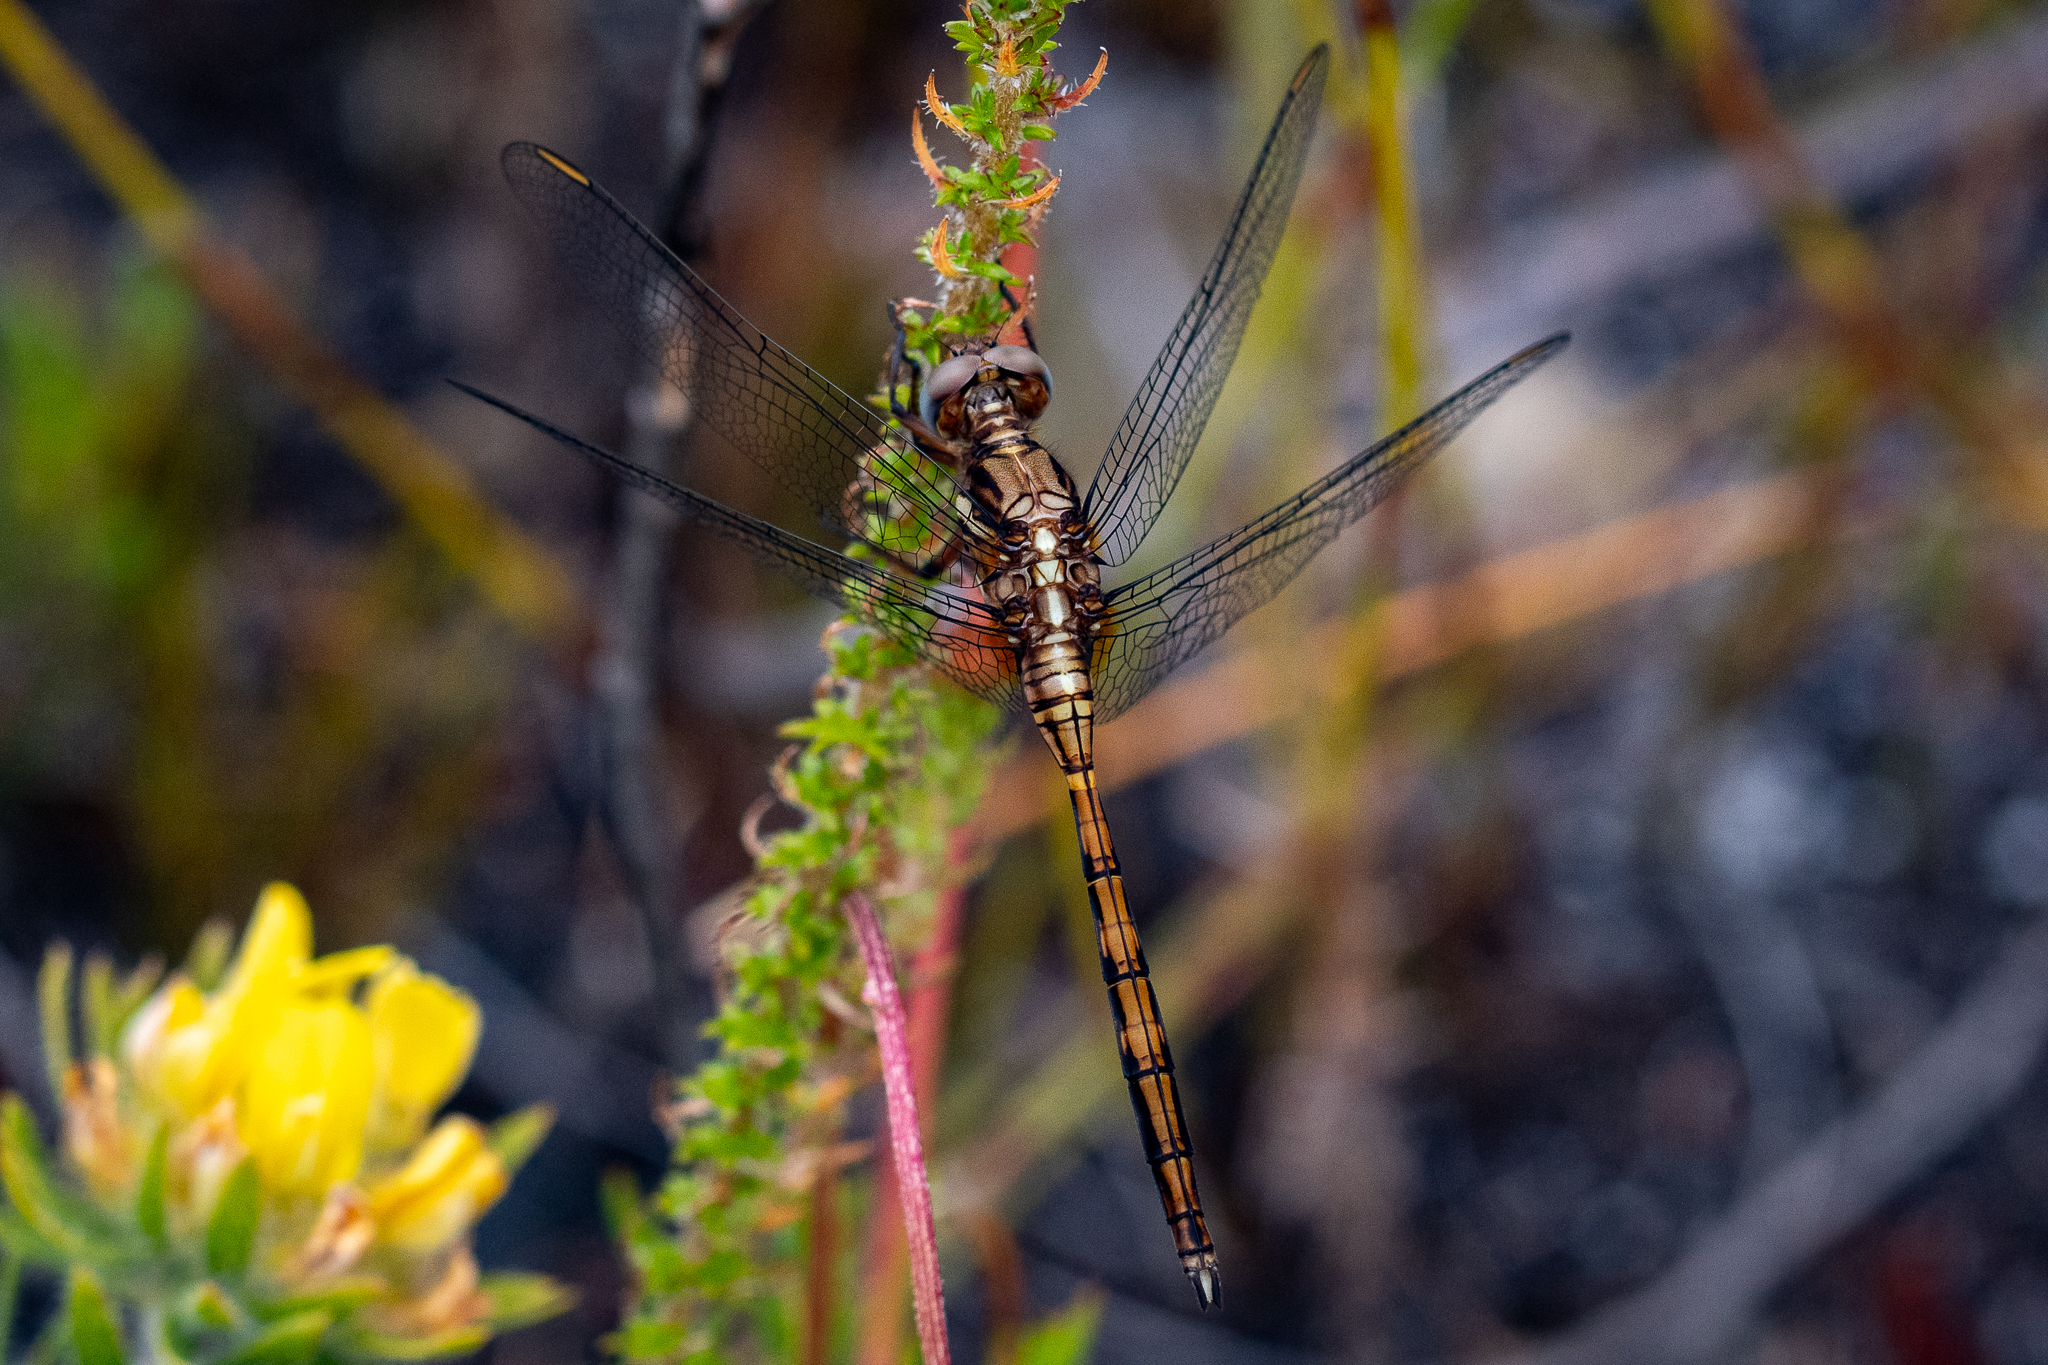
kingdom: Animalia
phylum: Arthropoda
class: Insecta
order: Odonata
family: Libellulidae
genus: Orthetrum
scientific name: Orthetrum julia
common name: Julia skimmer
